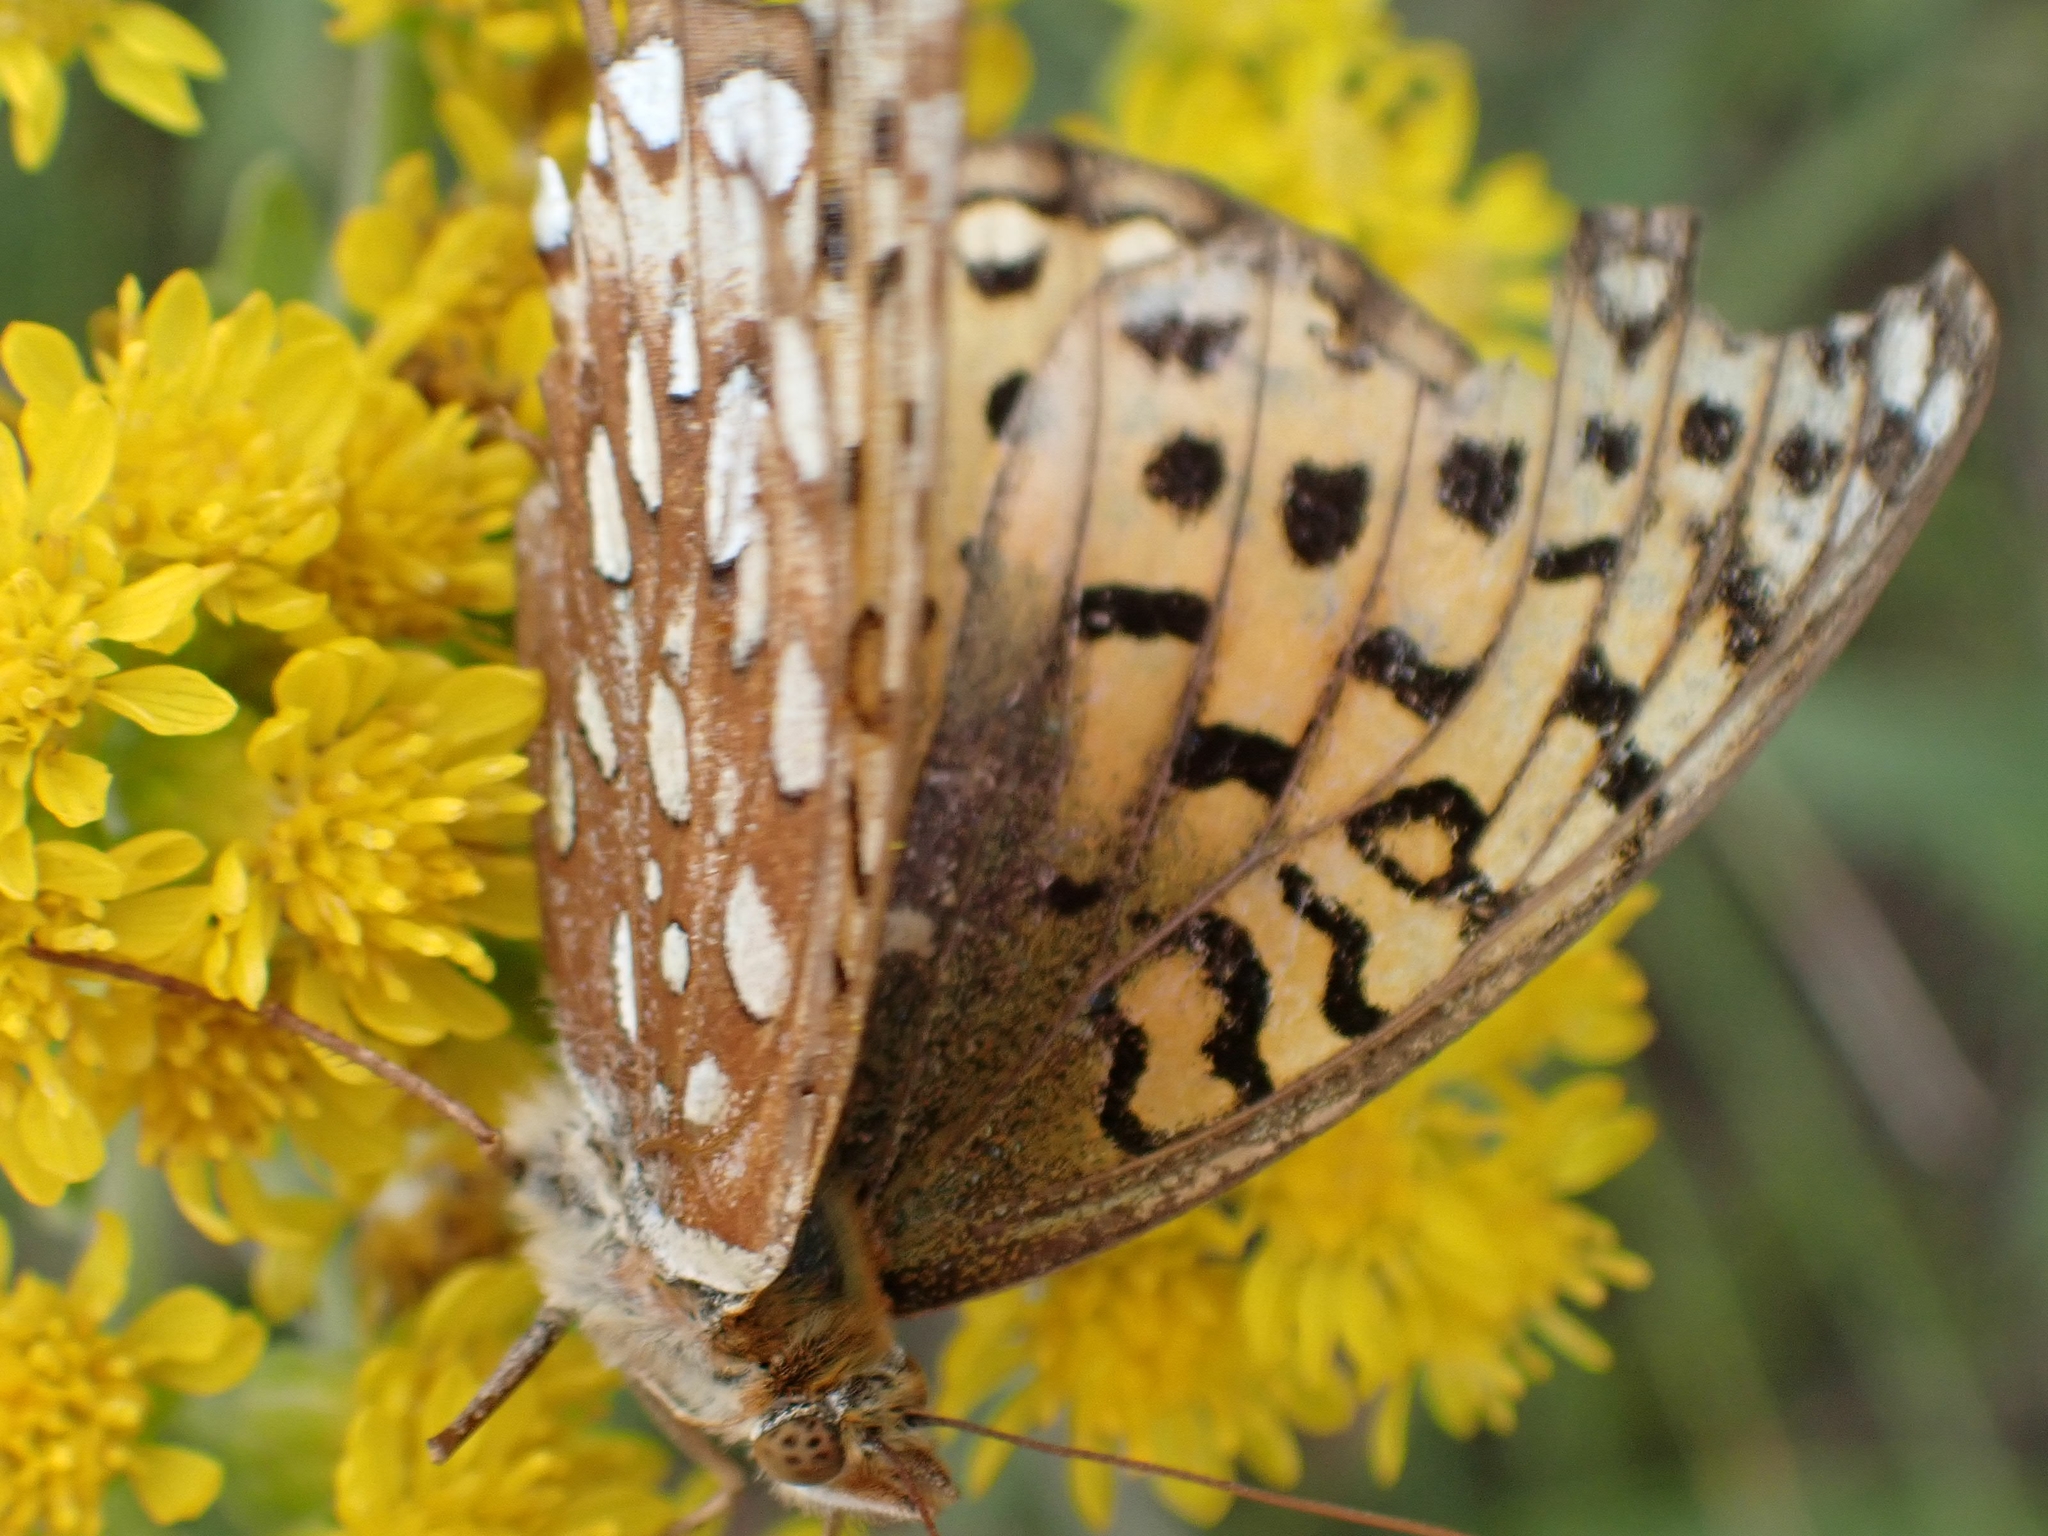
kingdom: Animalia
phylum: Arthropoda
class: Insecta
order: Lepidoptera
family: Nymphalidae
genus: Speyeria
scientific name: Speyeria aphrodite
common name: Aphrodite friitllary
